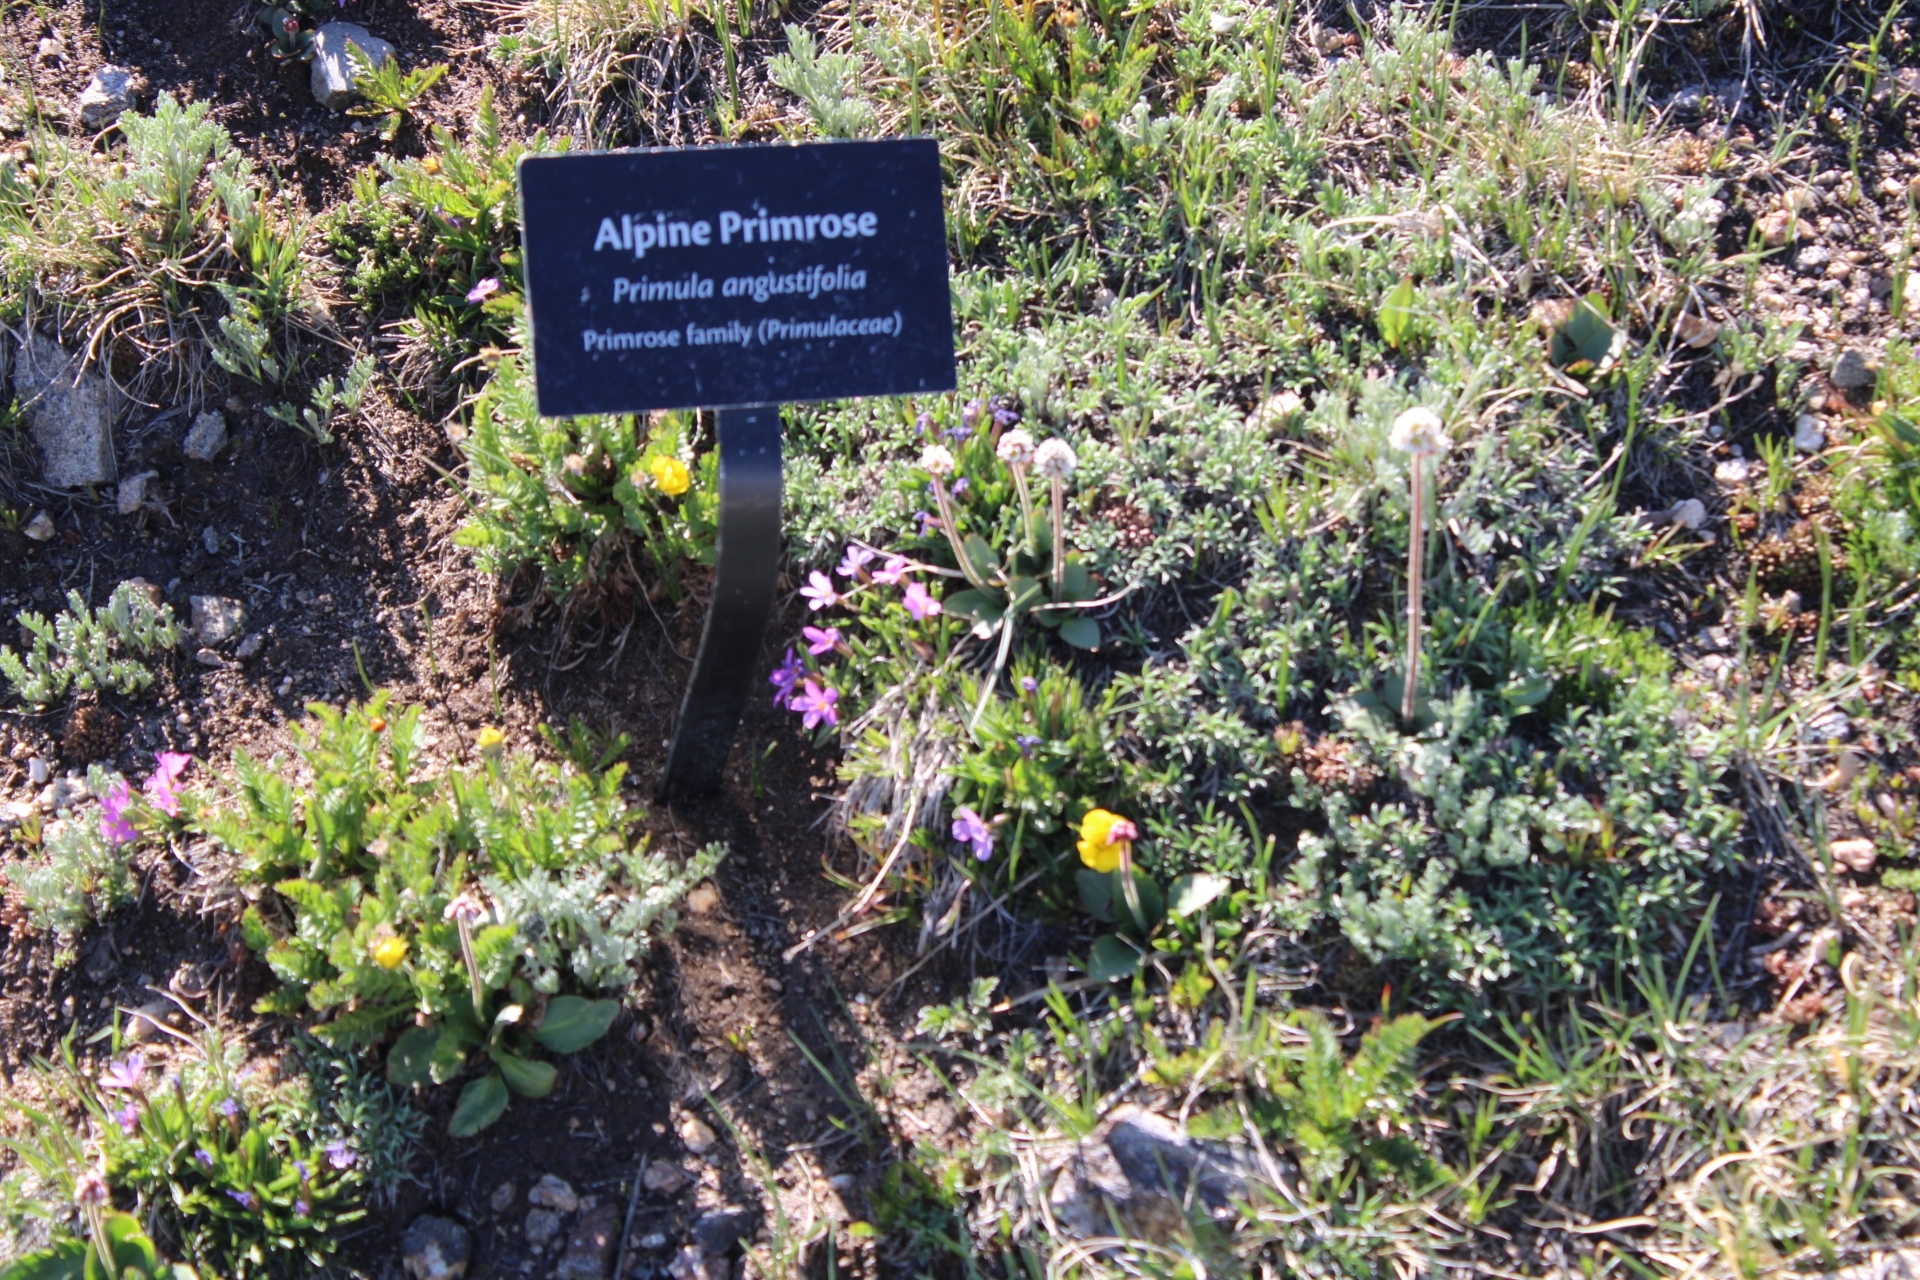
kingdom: Plantae
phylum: Tracheophyta
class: Magnoliopsida
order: Ericales
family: Primulaceae
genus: Primula
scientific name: Primula angustifolia
